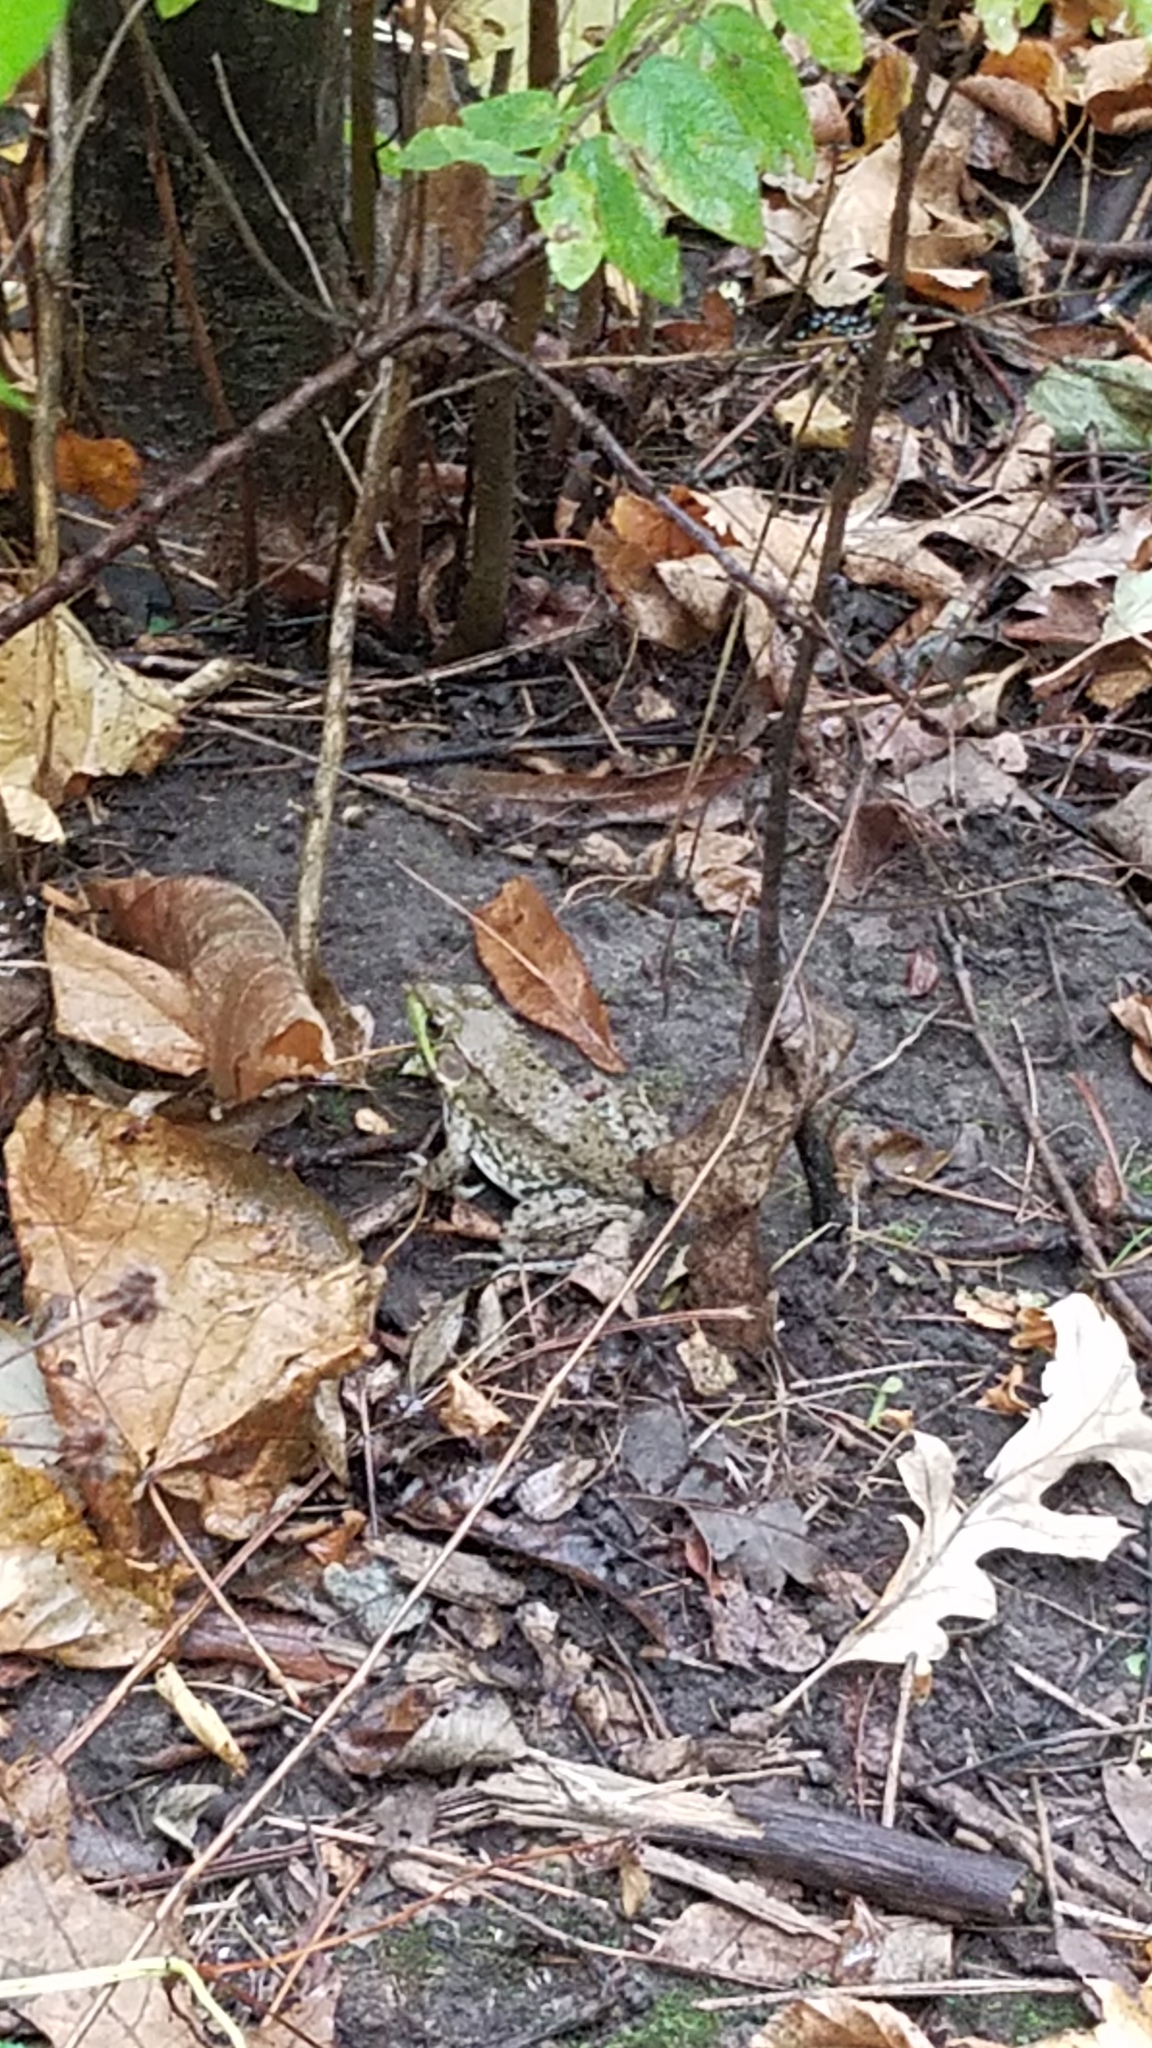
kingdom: Animalia
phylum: Chordata
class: Amphibia
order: Anura
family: Ranidae
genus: Lithobates
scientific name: Lithobates clamitans
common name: Green frog
